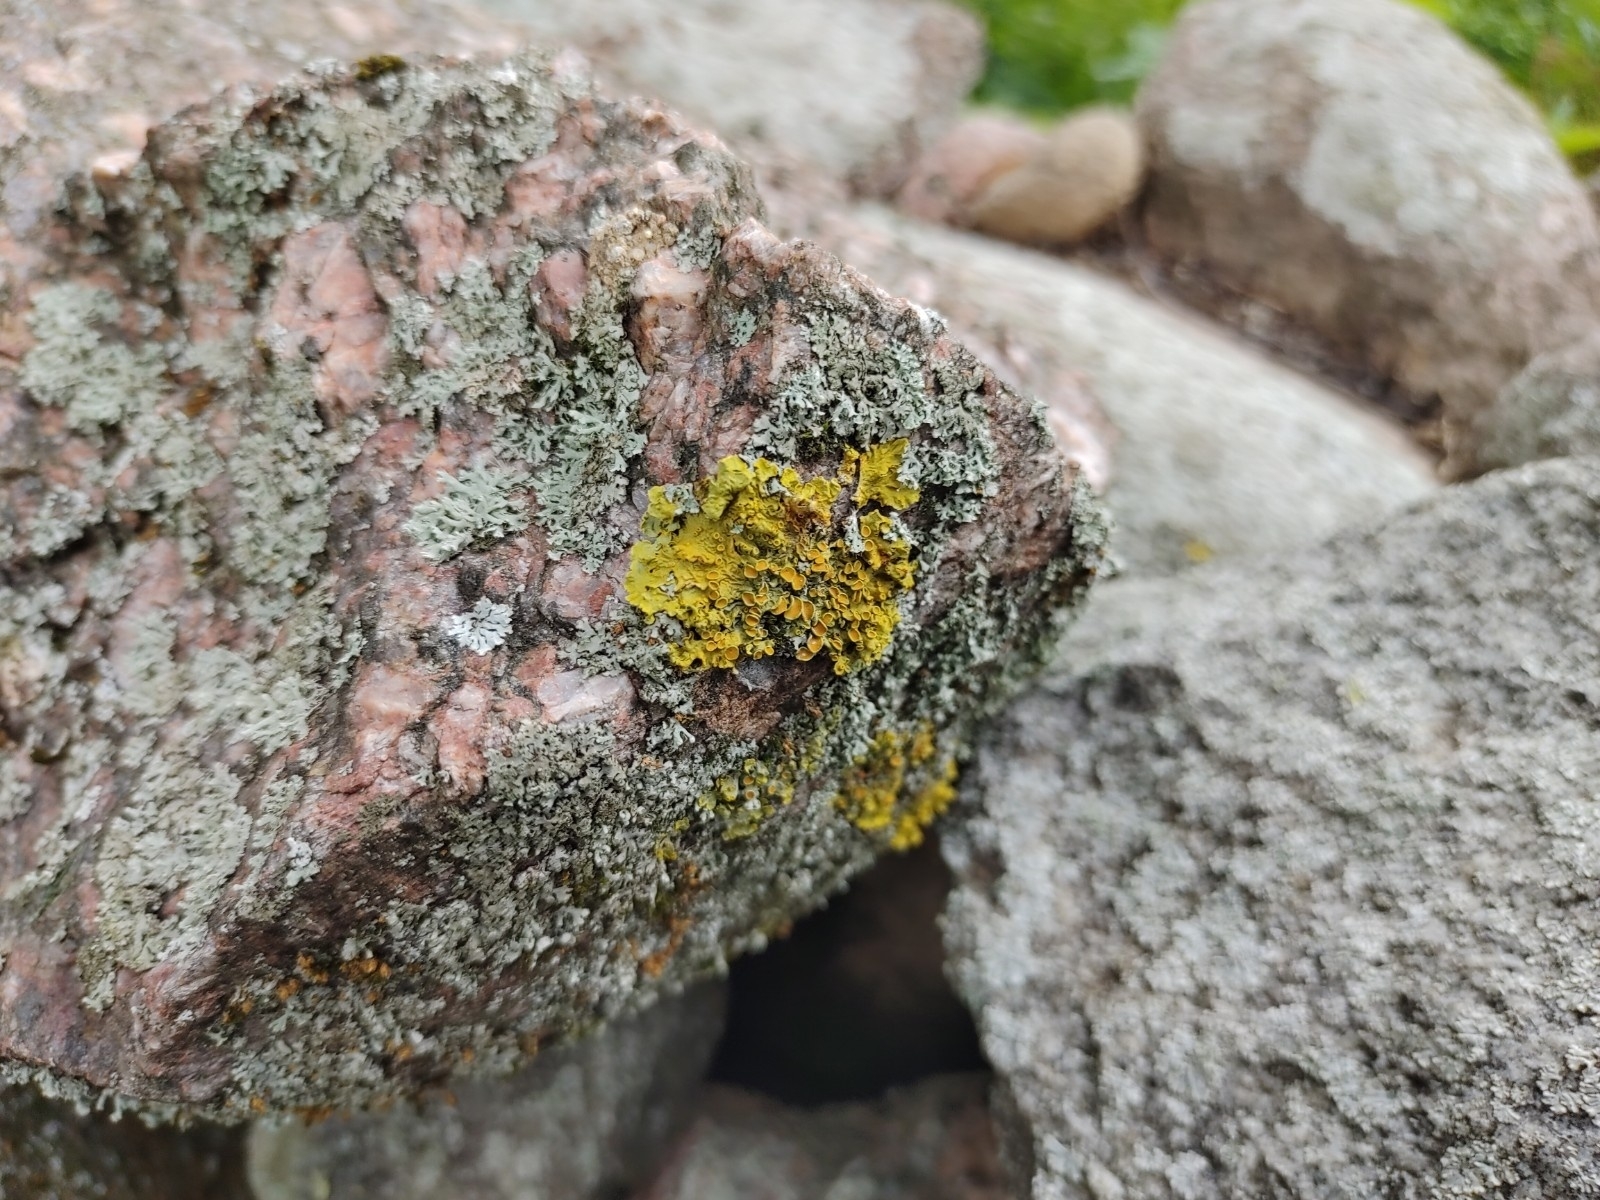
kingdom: Fungi
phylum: Ascomycota
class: Lecanoromycetes
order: Teloschistales
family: Teloschistaceae
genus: Xanthoria
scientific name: Xanthoria parietina
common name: Common orange lichen
